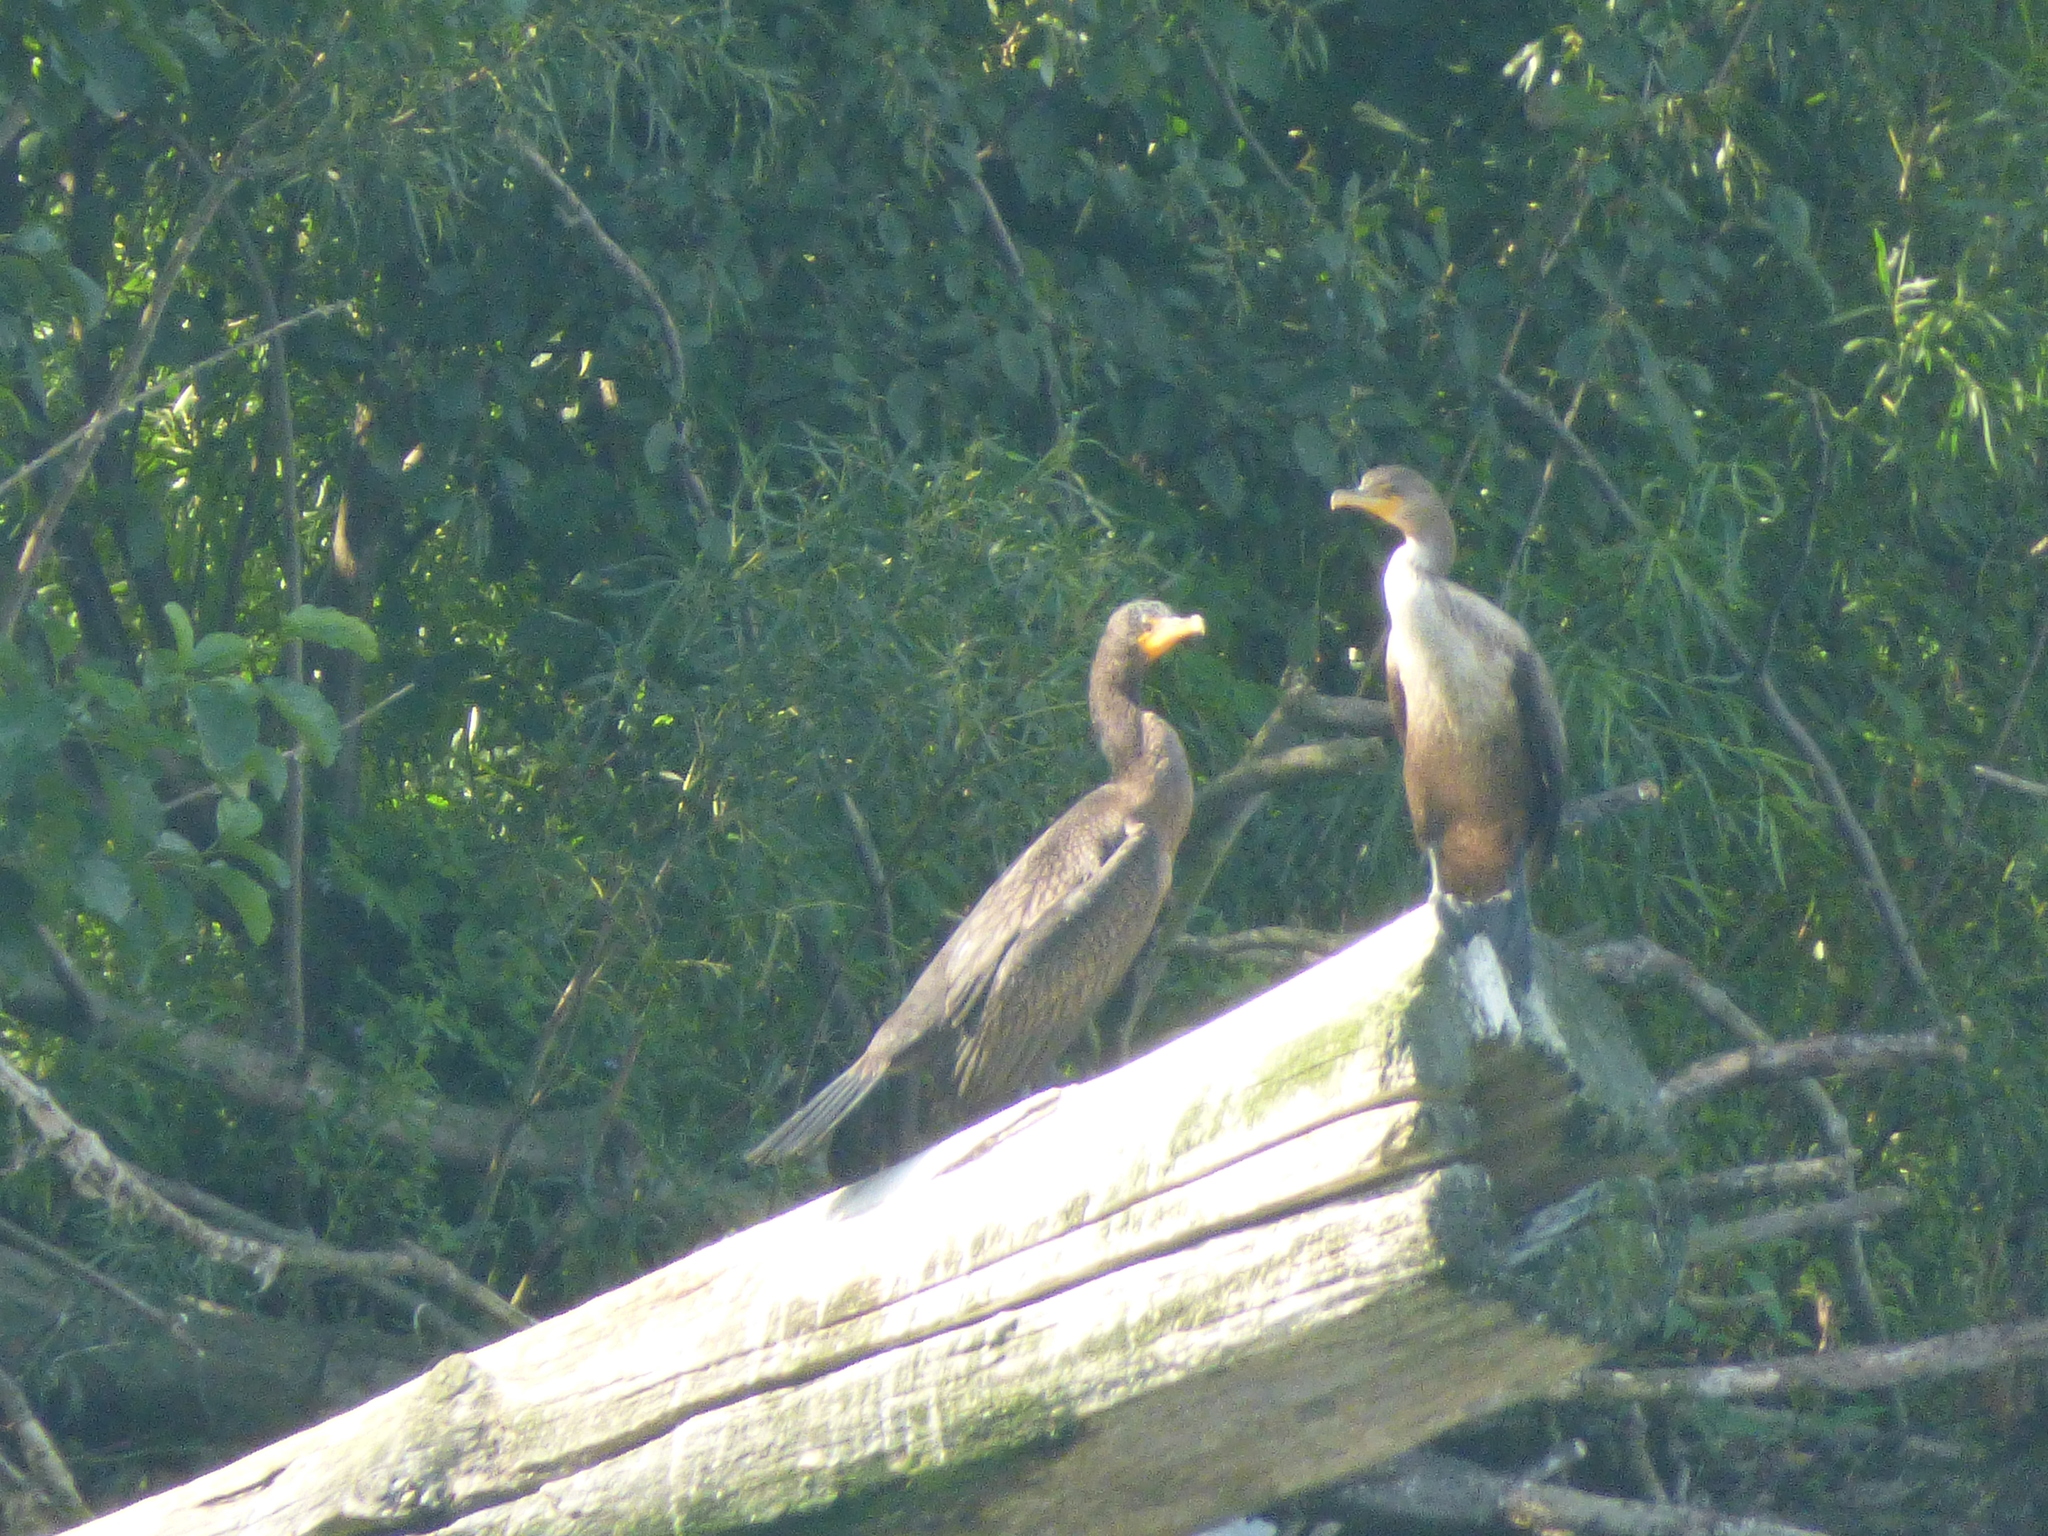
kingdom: Animalia
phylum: Chordata
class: Aves
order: Suliformes
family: Phalacrocoracidae
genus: Phalacrocorax
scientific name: Phalacrocorax auritus
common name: Double-crested cormorant
